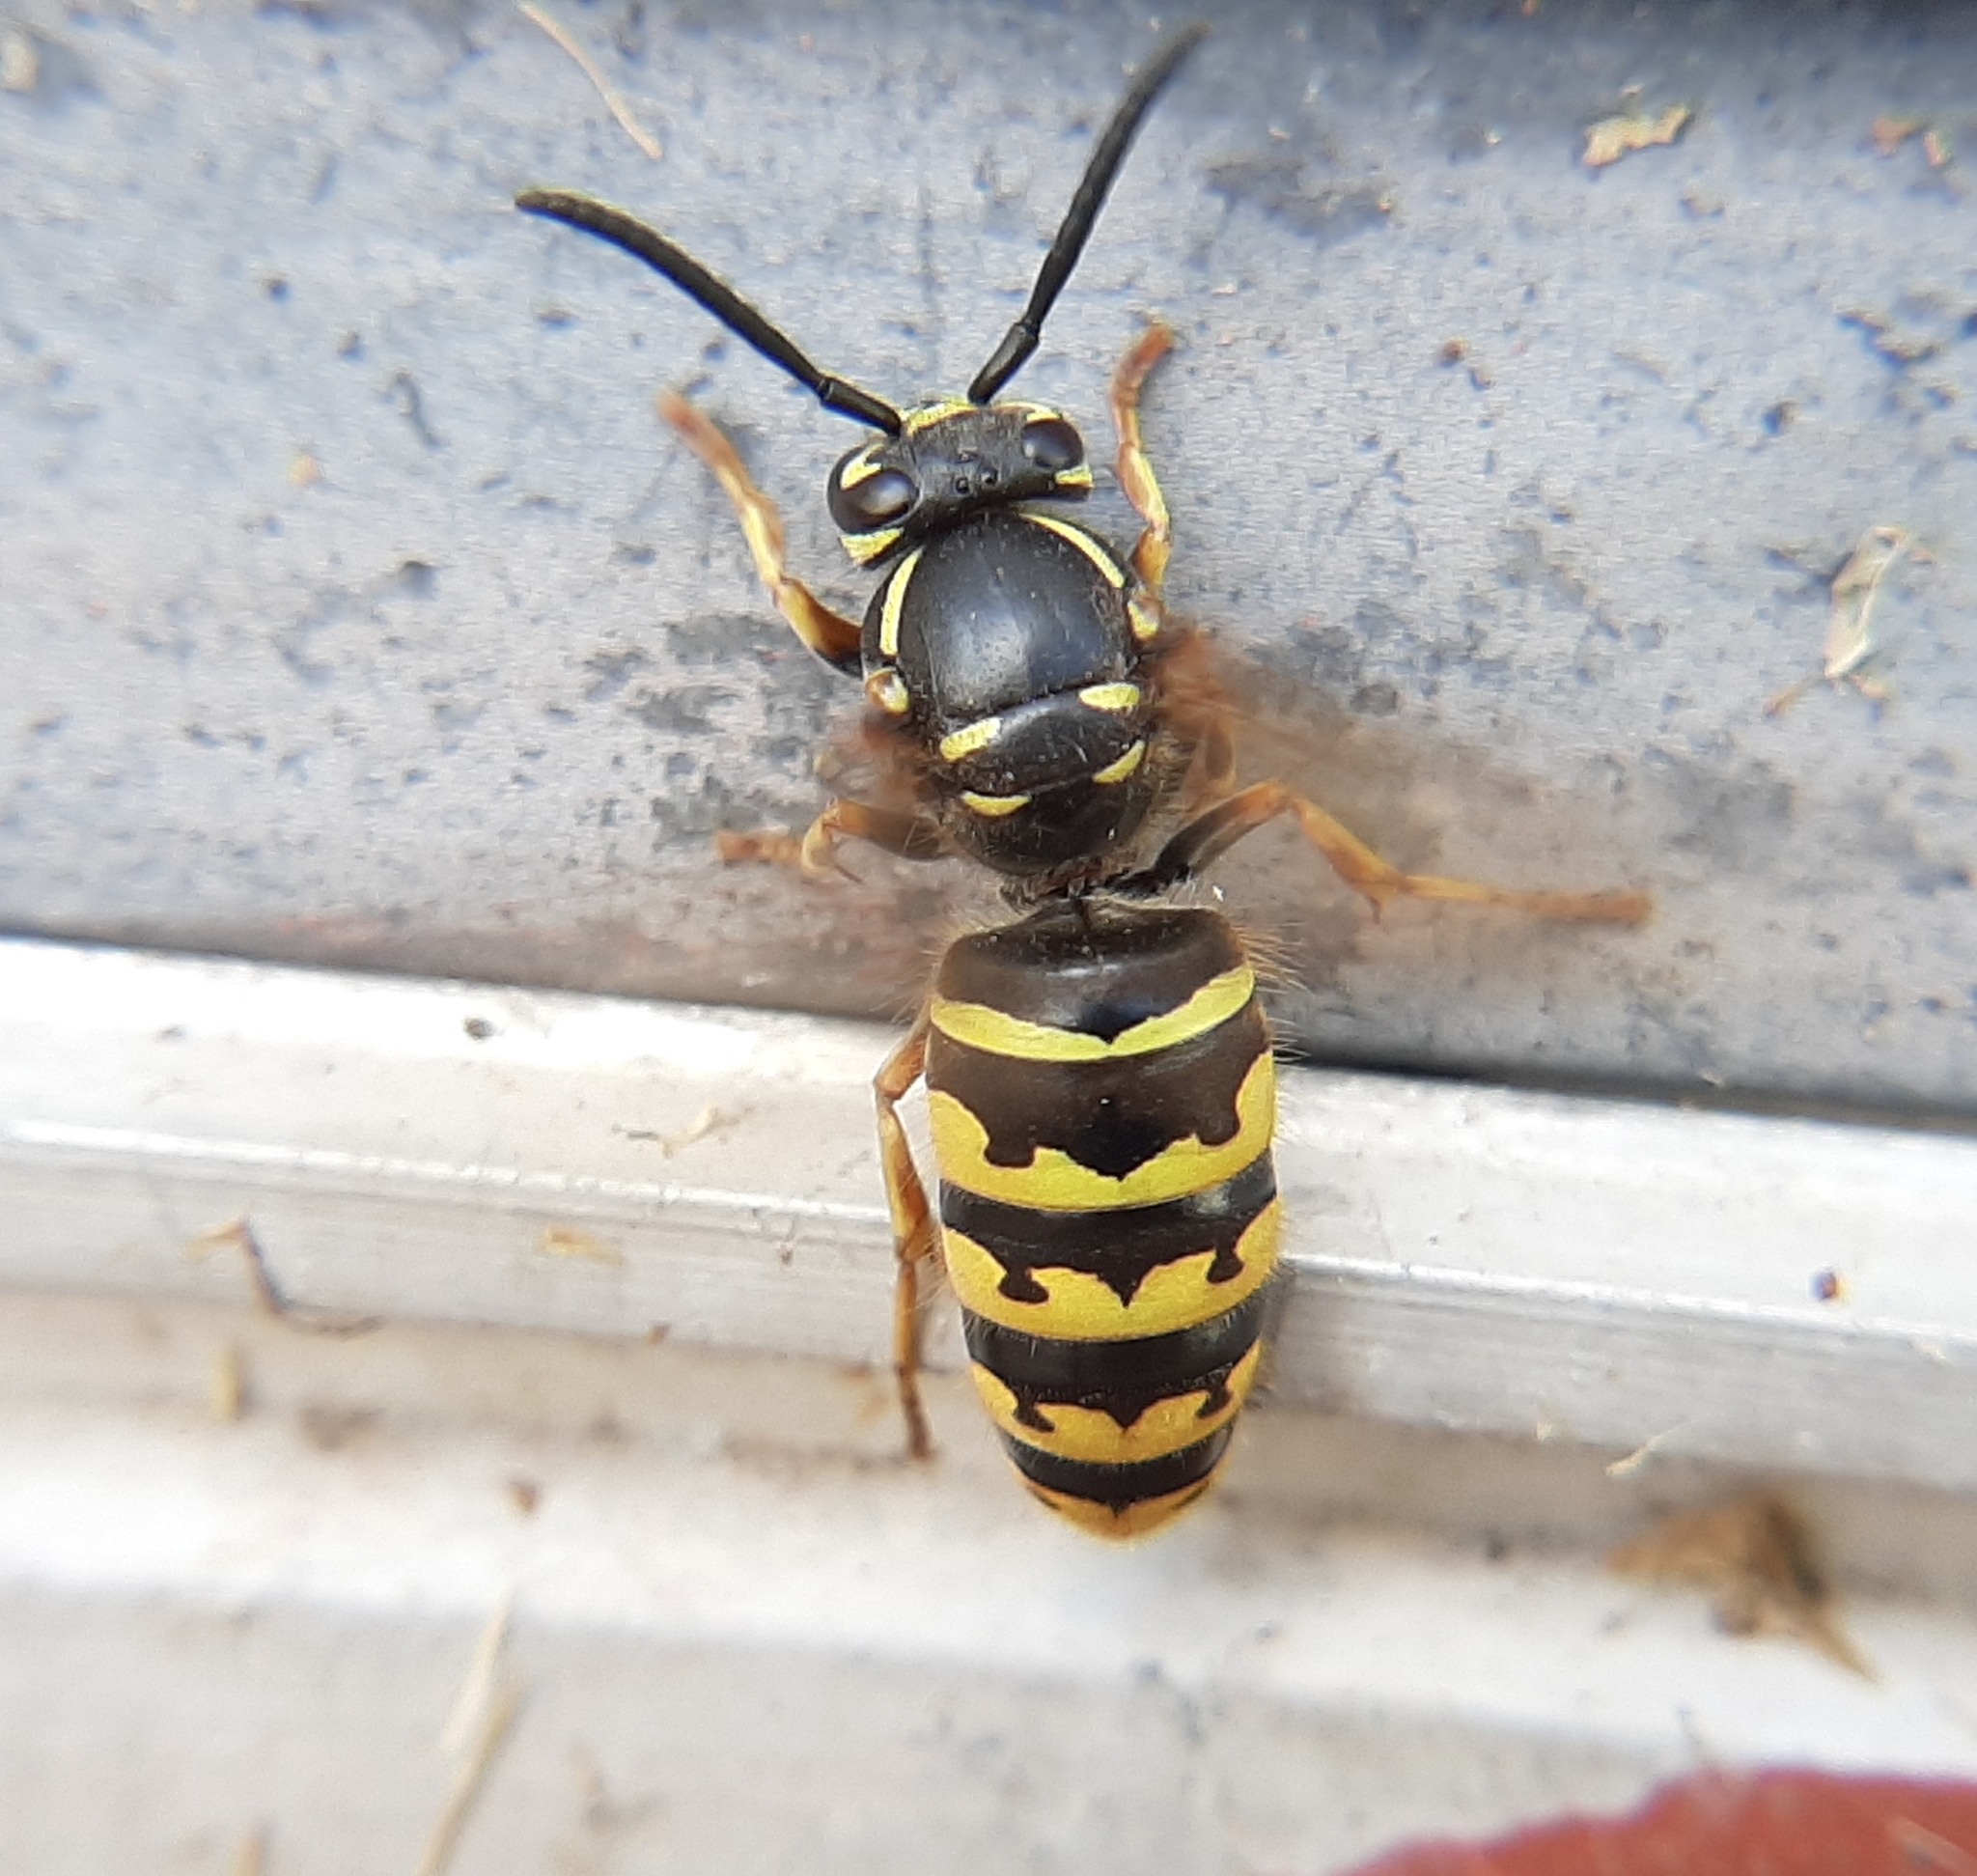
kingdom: Animalia
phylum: Arthropoda
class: Insecta
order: Hymenoptera
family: Vespidae
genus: Vespula
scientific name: Vespula alascensis
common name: Alaska yellowjacket
